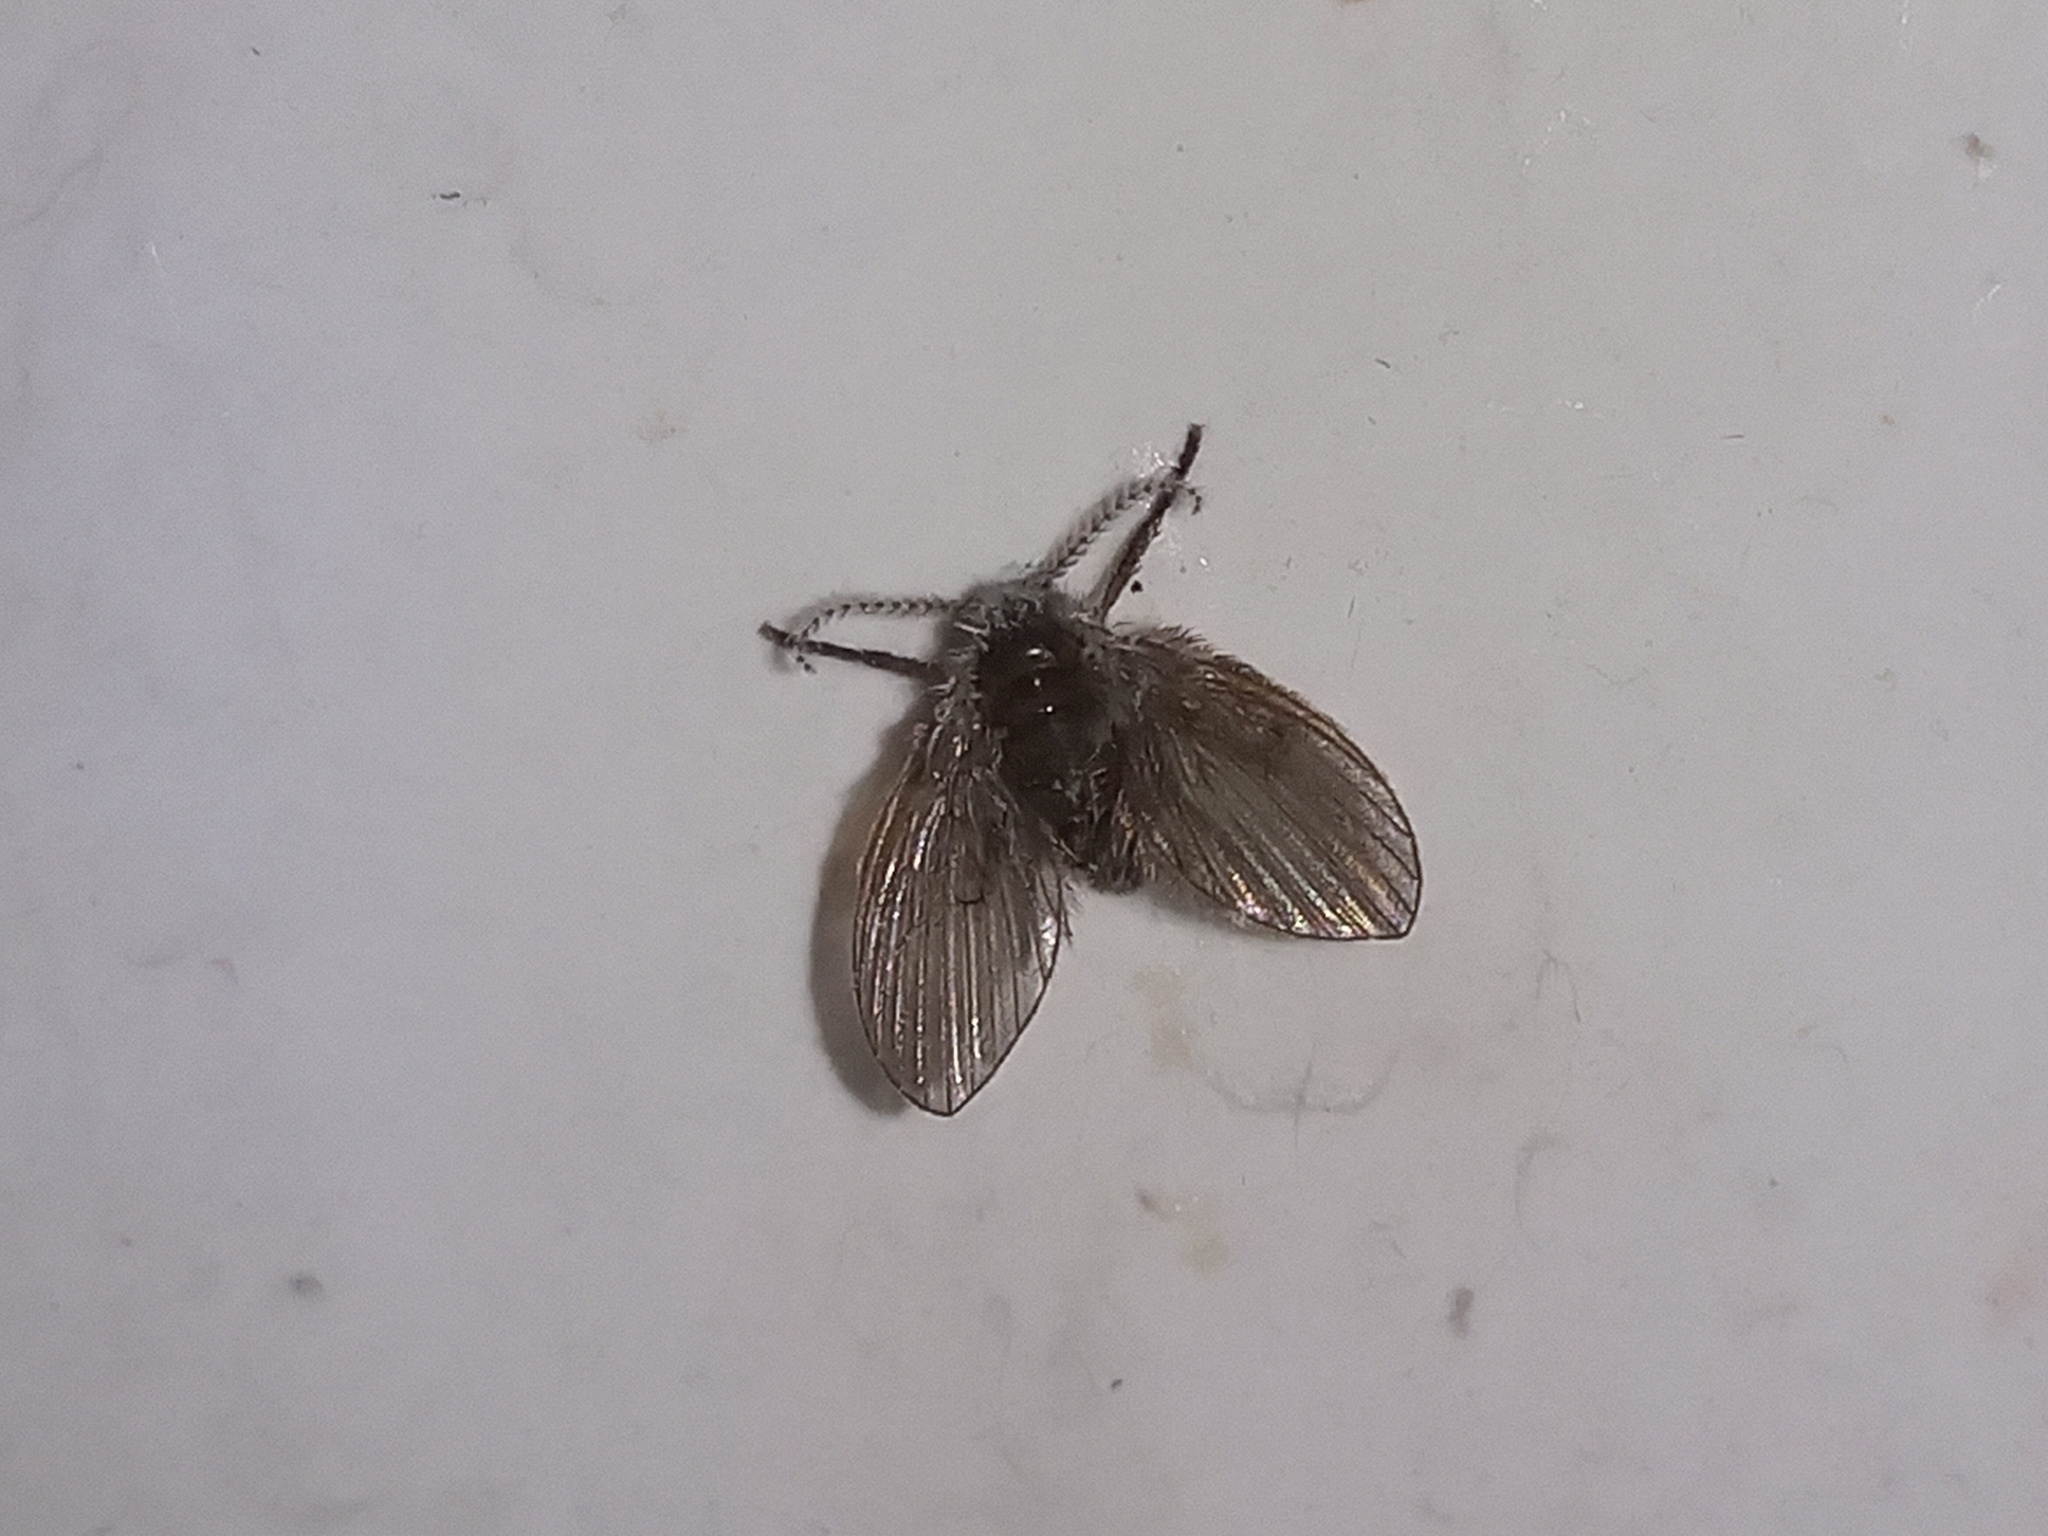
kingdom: Animalia
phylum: Arthropoda
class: Insecta
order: Diptera
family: Psychodidae
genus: Clogmia
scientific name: Clogmia albipunctatus
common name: White-spotted moth fly
